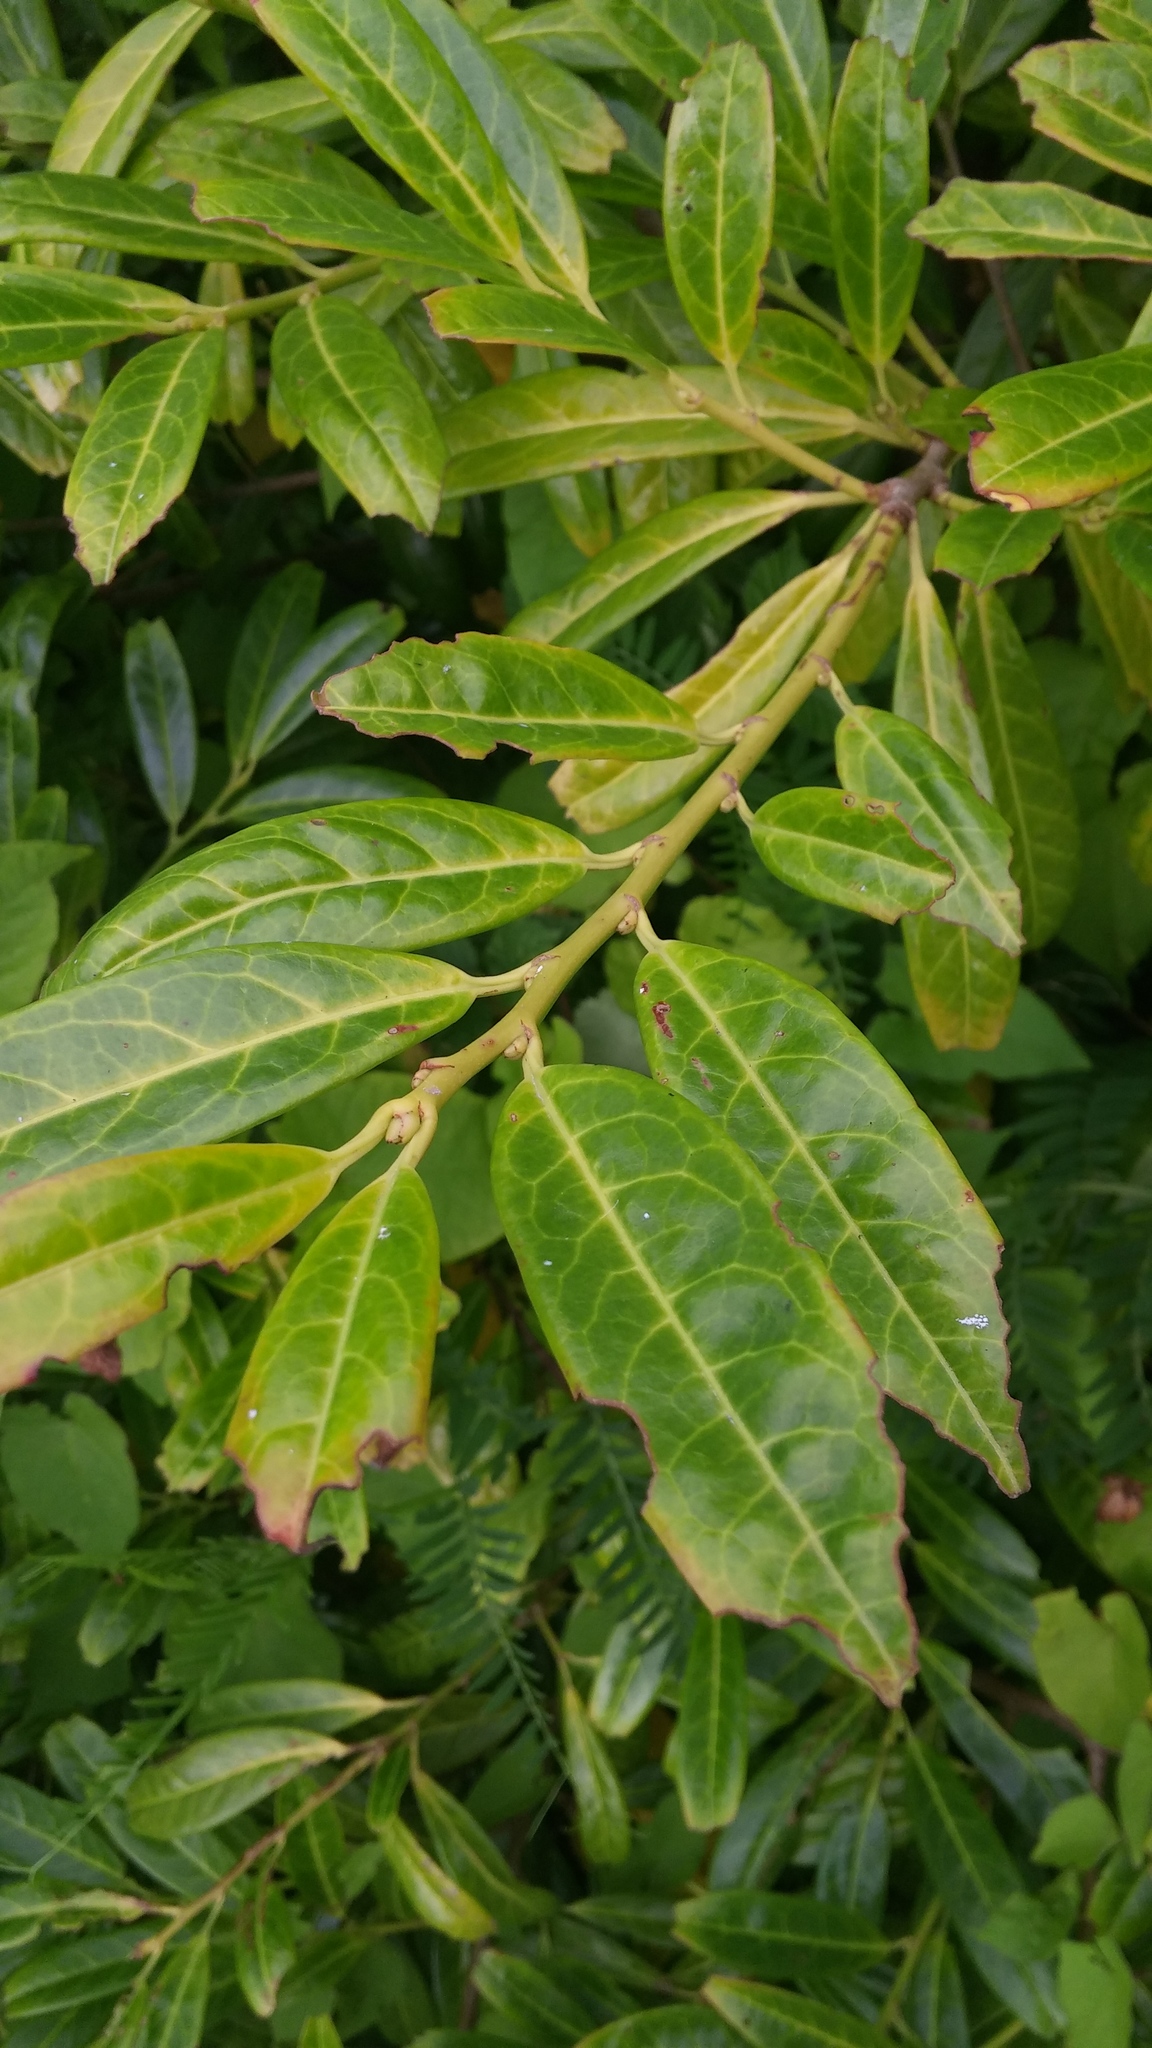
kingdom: Plantae
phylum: Tracheophyta
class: Magnoliopsida
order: Rosales
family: Rosaceae
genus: Prunus
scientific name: Prunus laurocerasus
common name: Cherry laurel
